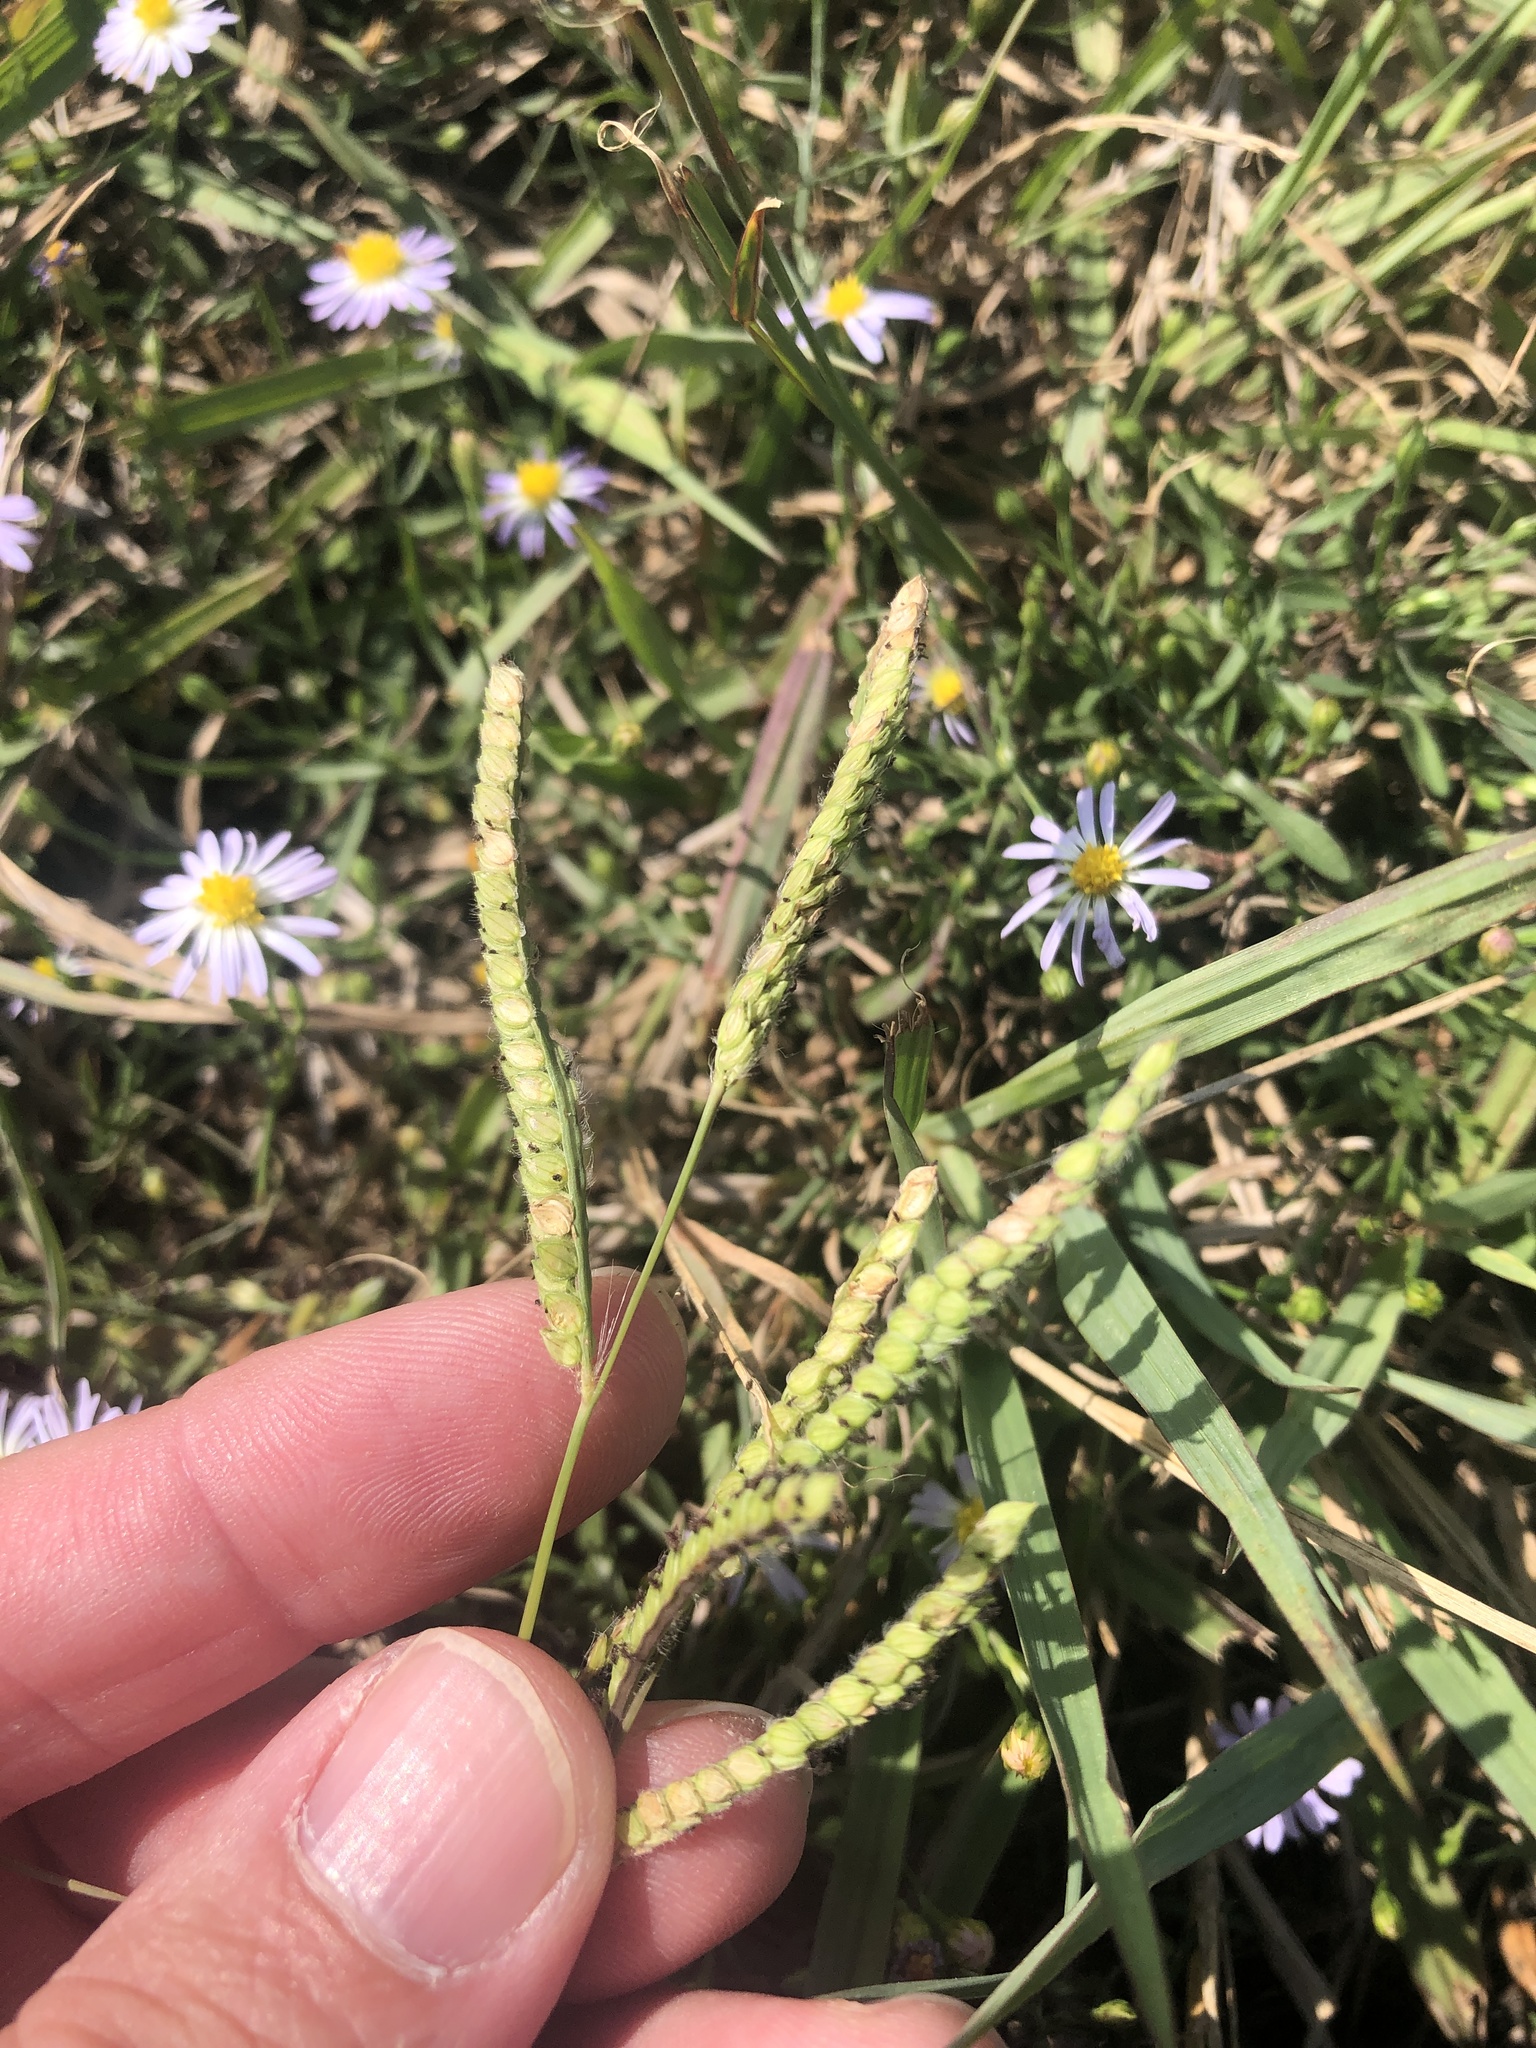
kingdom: Plantae
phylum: Tracheophyta
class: Liliopsida
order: Poales
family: Poaceae
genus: Paspalum
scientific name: Paspalum dilatatum
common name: Dallisgrass
